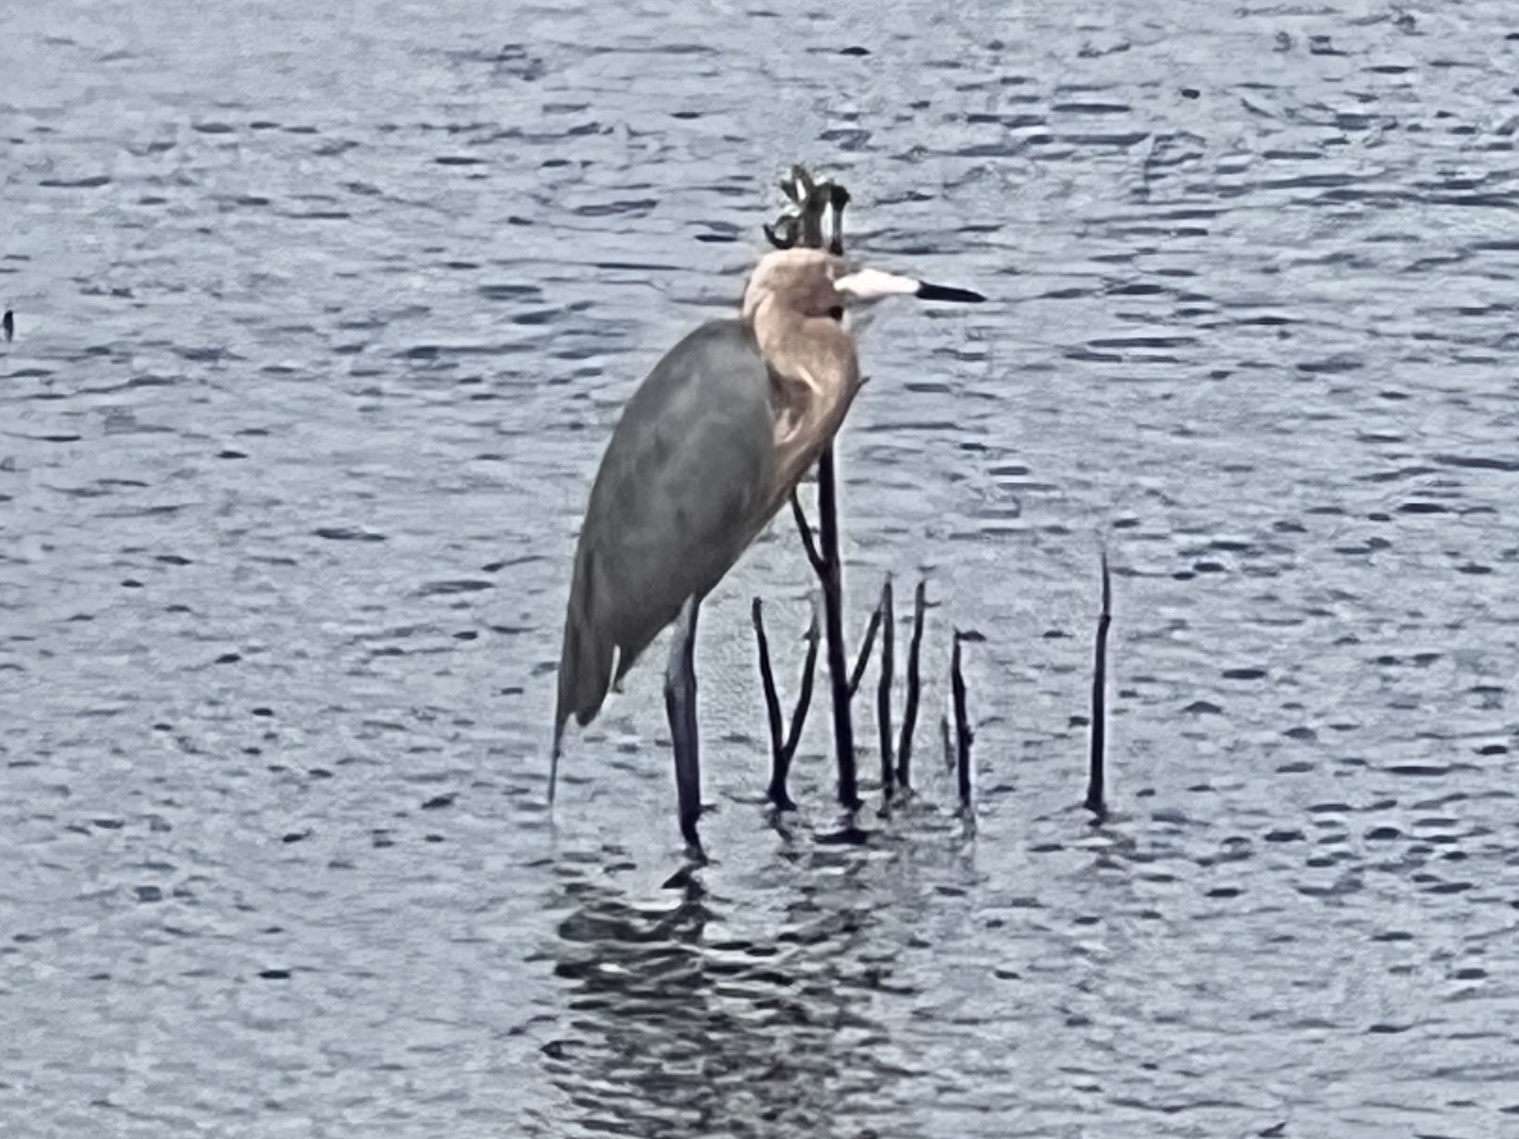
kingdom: Animalia
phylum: Chordata
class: Aves
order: Pelecaniformes
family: Ardeidae
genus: Egretta
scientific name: Egretta rufescens
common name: Reddish egret
